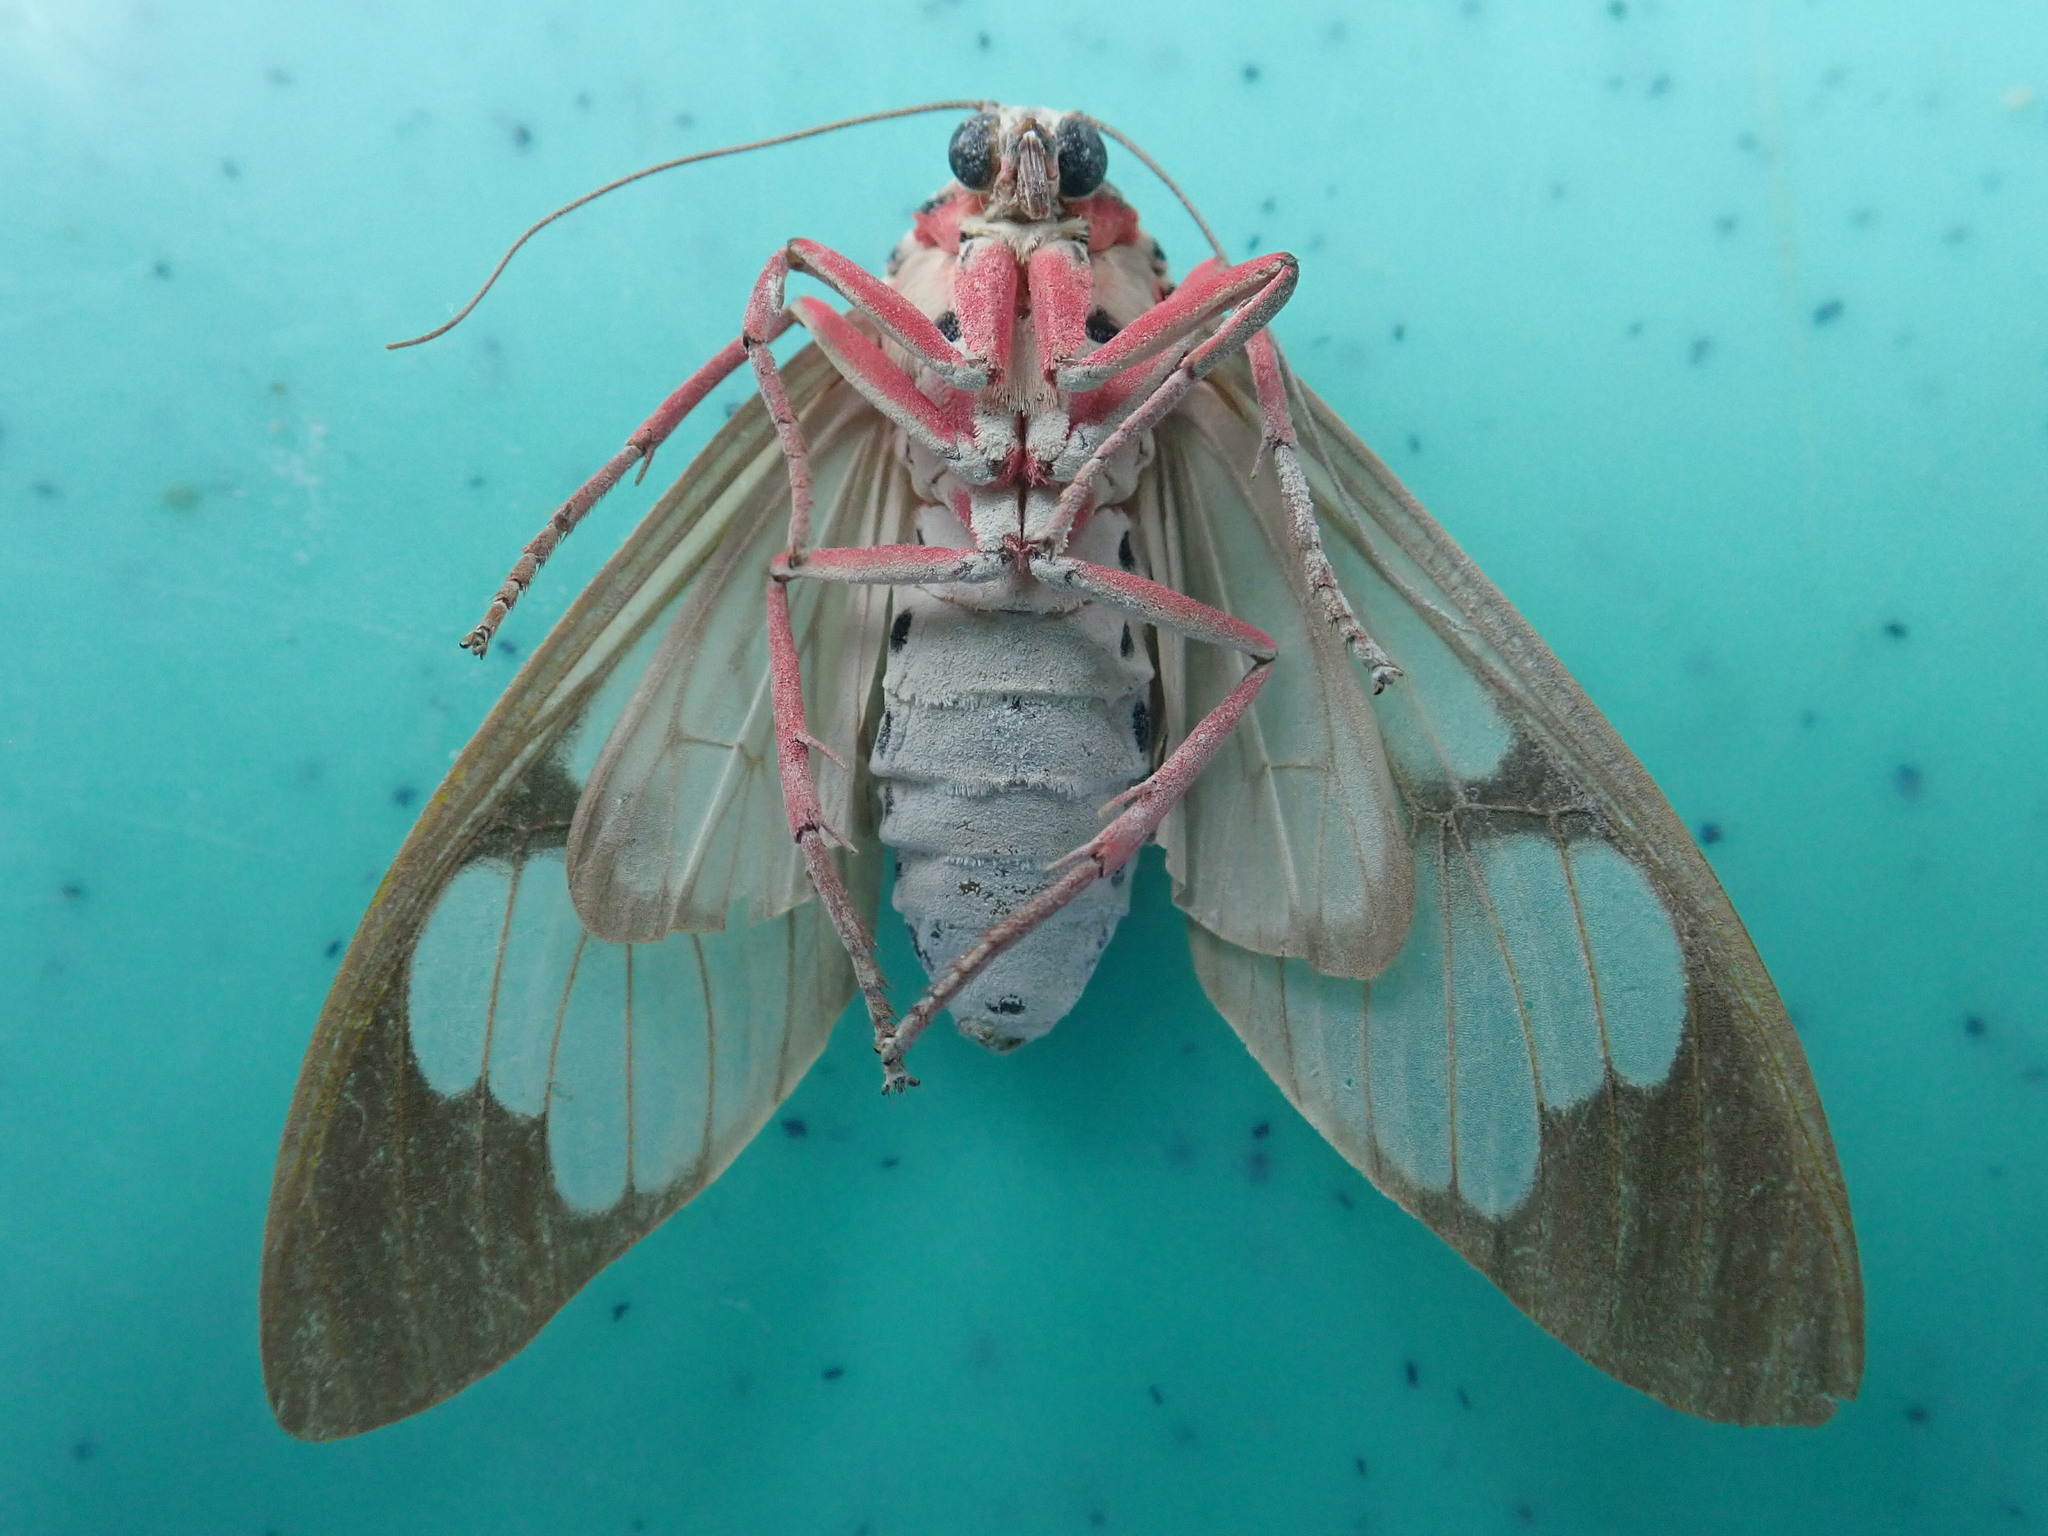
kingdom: Animalia
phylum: Arthropoda
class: Insecta
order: Lepidoptera
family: Erebidae
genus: Amerila
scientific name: Amerila astreus
